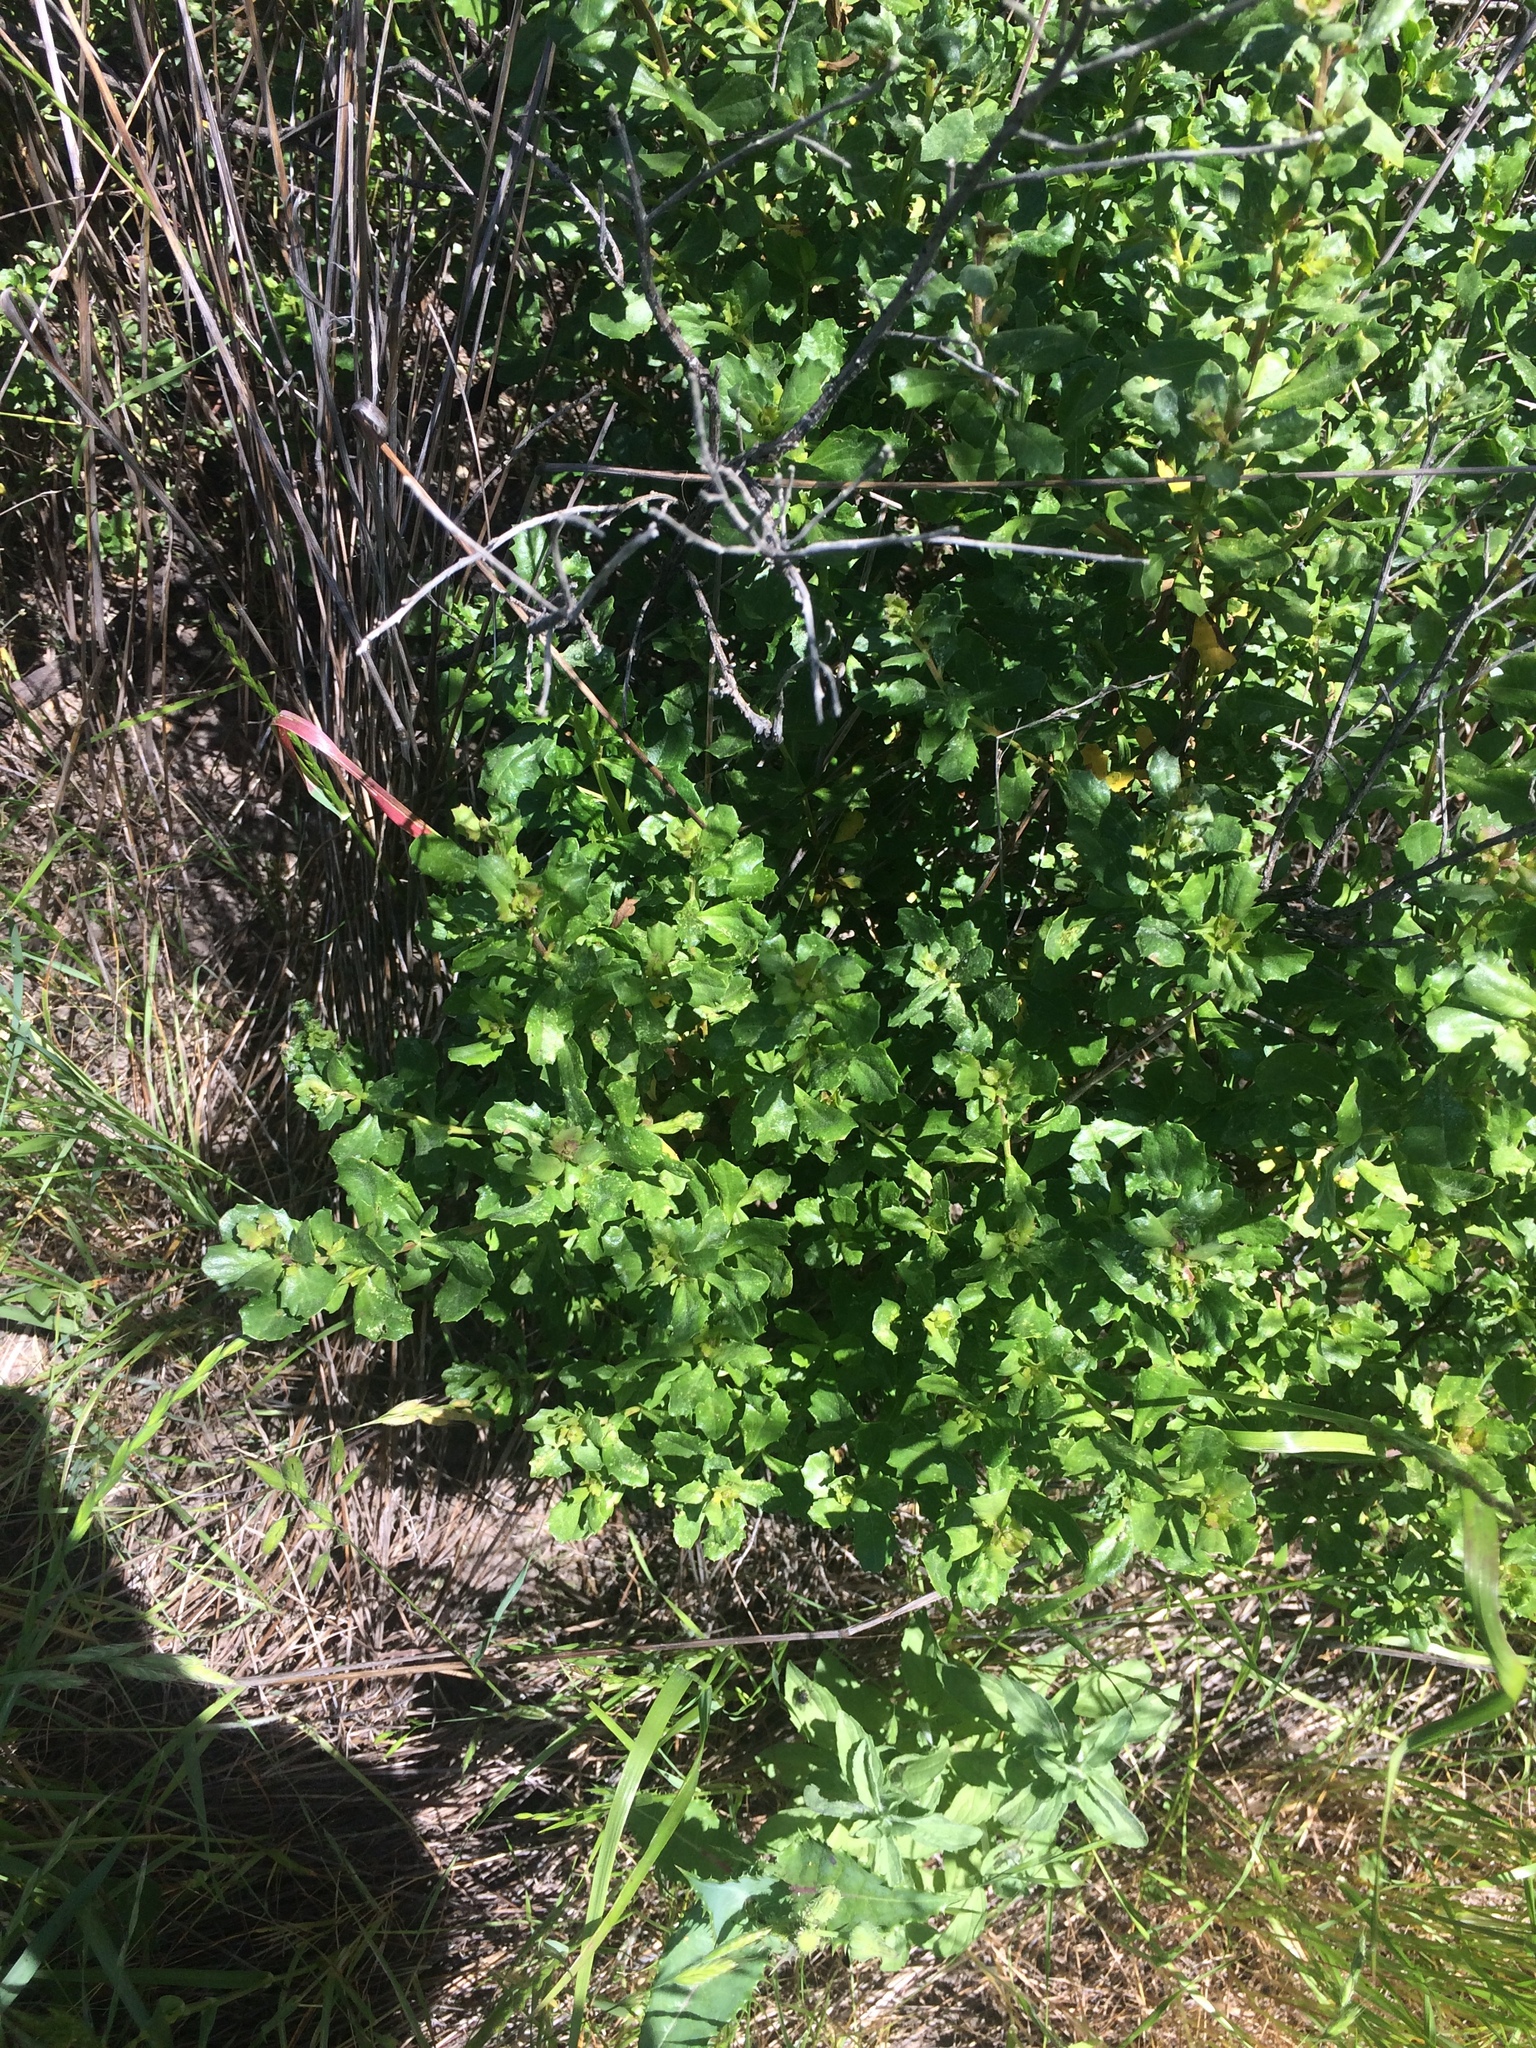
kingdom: Plantae
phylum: Tracheophyta
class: Magnoliopsida
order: Asterales
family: Asteraceae
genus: Baccharis
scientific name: Baccharis pilularis
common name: Coyotebrush
